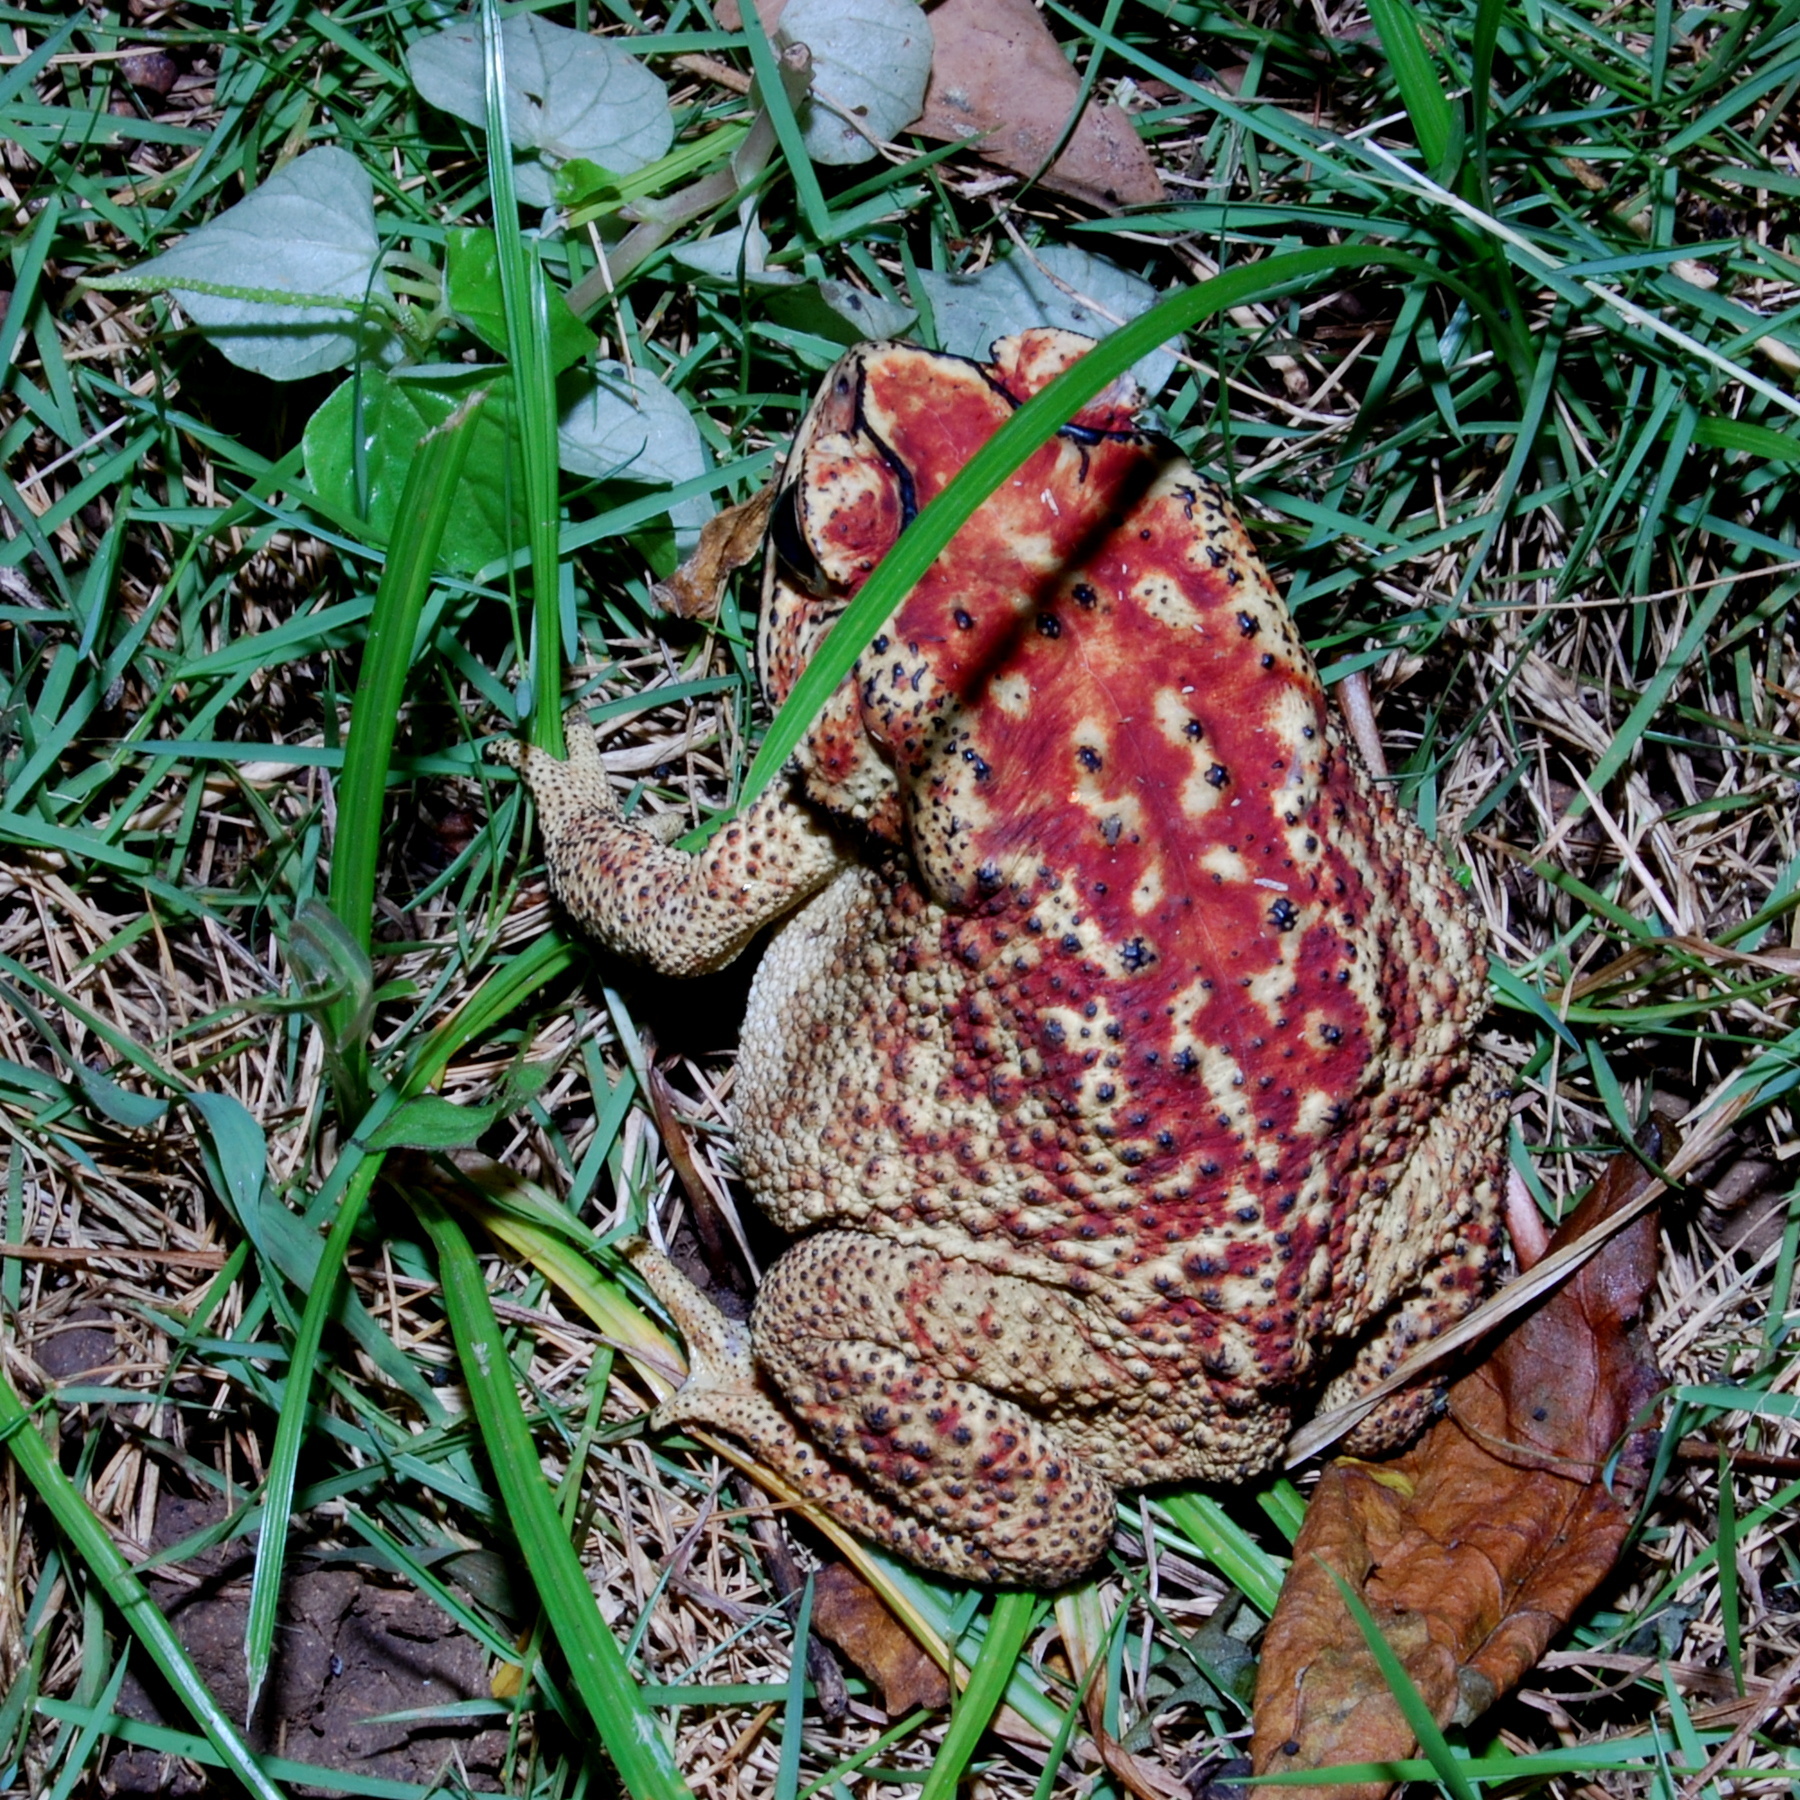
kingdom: Animalia
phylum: Chordata
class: Amphibia
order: Anura
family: Bufonidae
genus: Duttaphrynus
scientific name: Duttaphrynus melanostictus
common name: Common sunda toad
